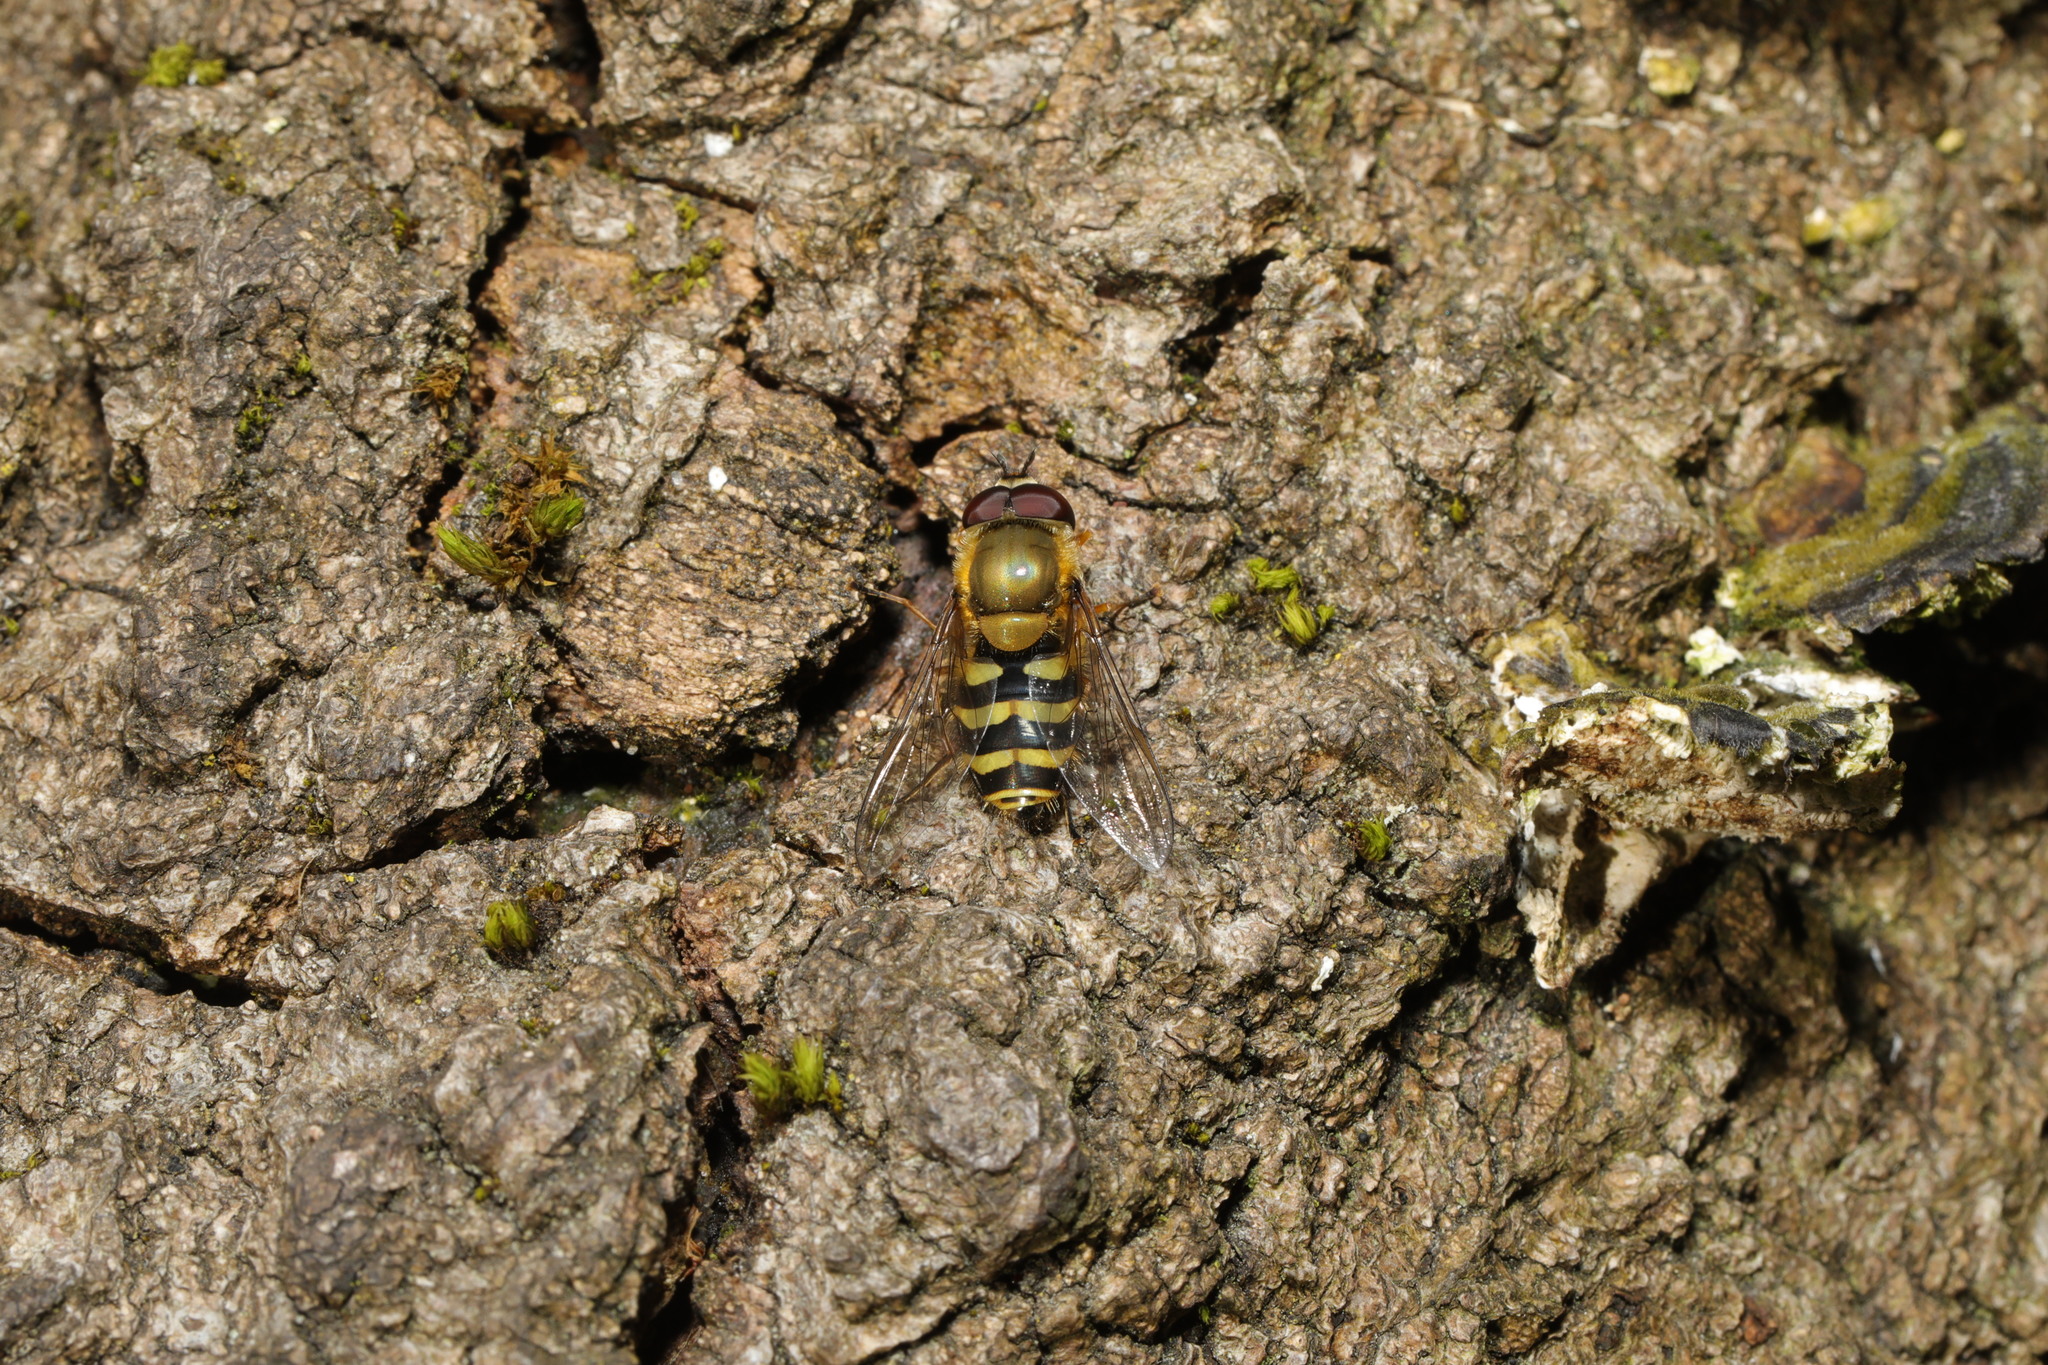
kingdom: Animalia
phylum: Arthropoda
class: Insecta
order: Diptera
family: Syrphidae
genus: Syrphus
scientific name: Syrphus
